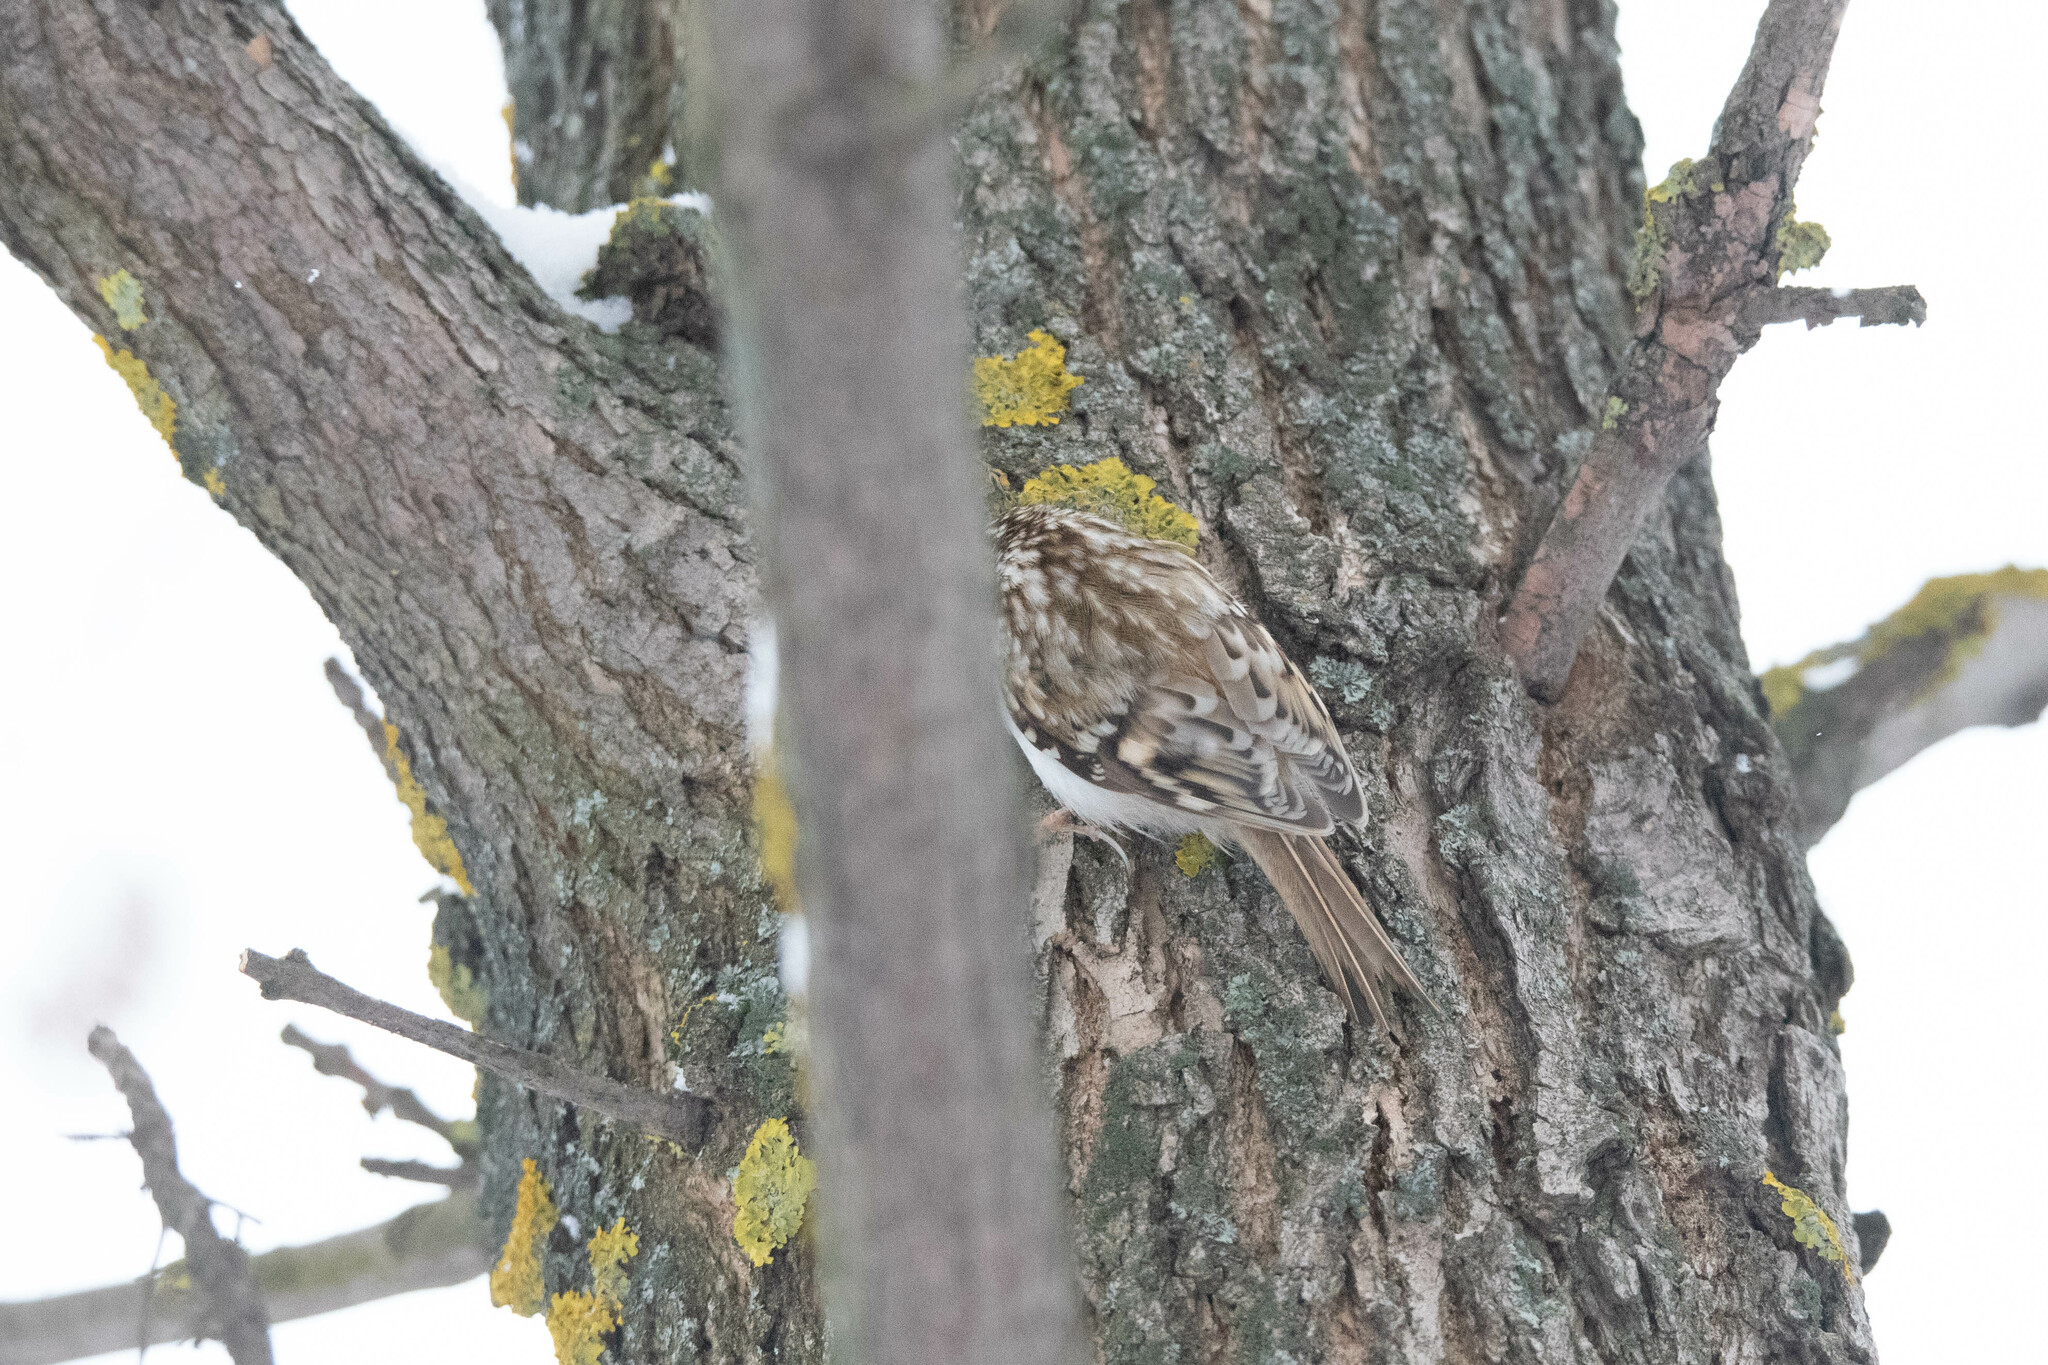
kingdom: Animalia
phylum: Chordata
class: Aves
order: Passeriformes
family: Certhiidae
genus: Certhia
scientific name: Certhia familiaris
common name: Eurasian treecreeper
